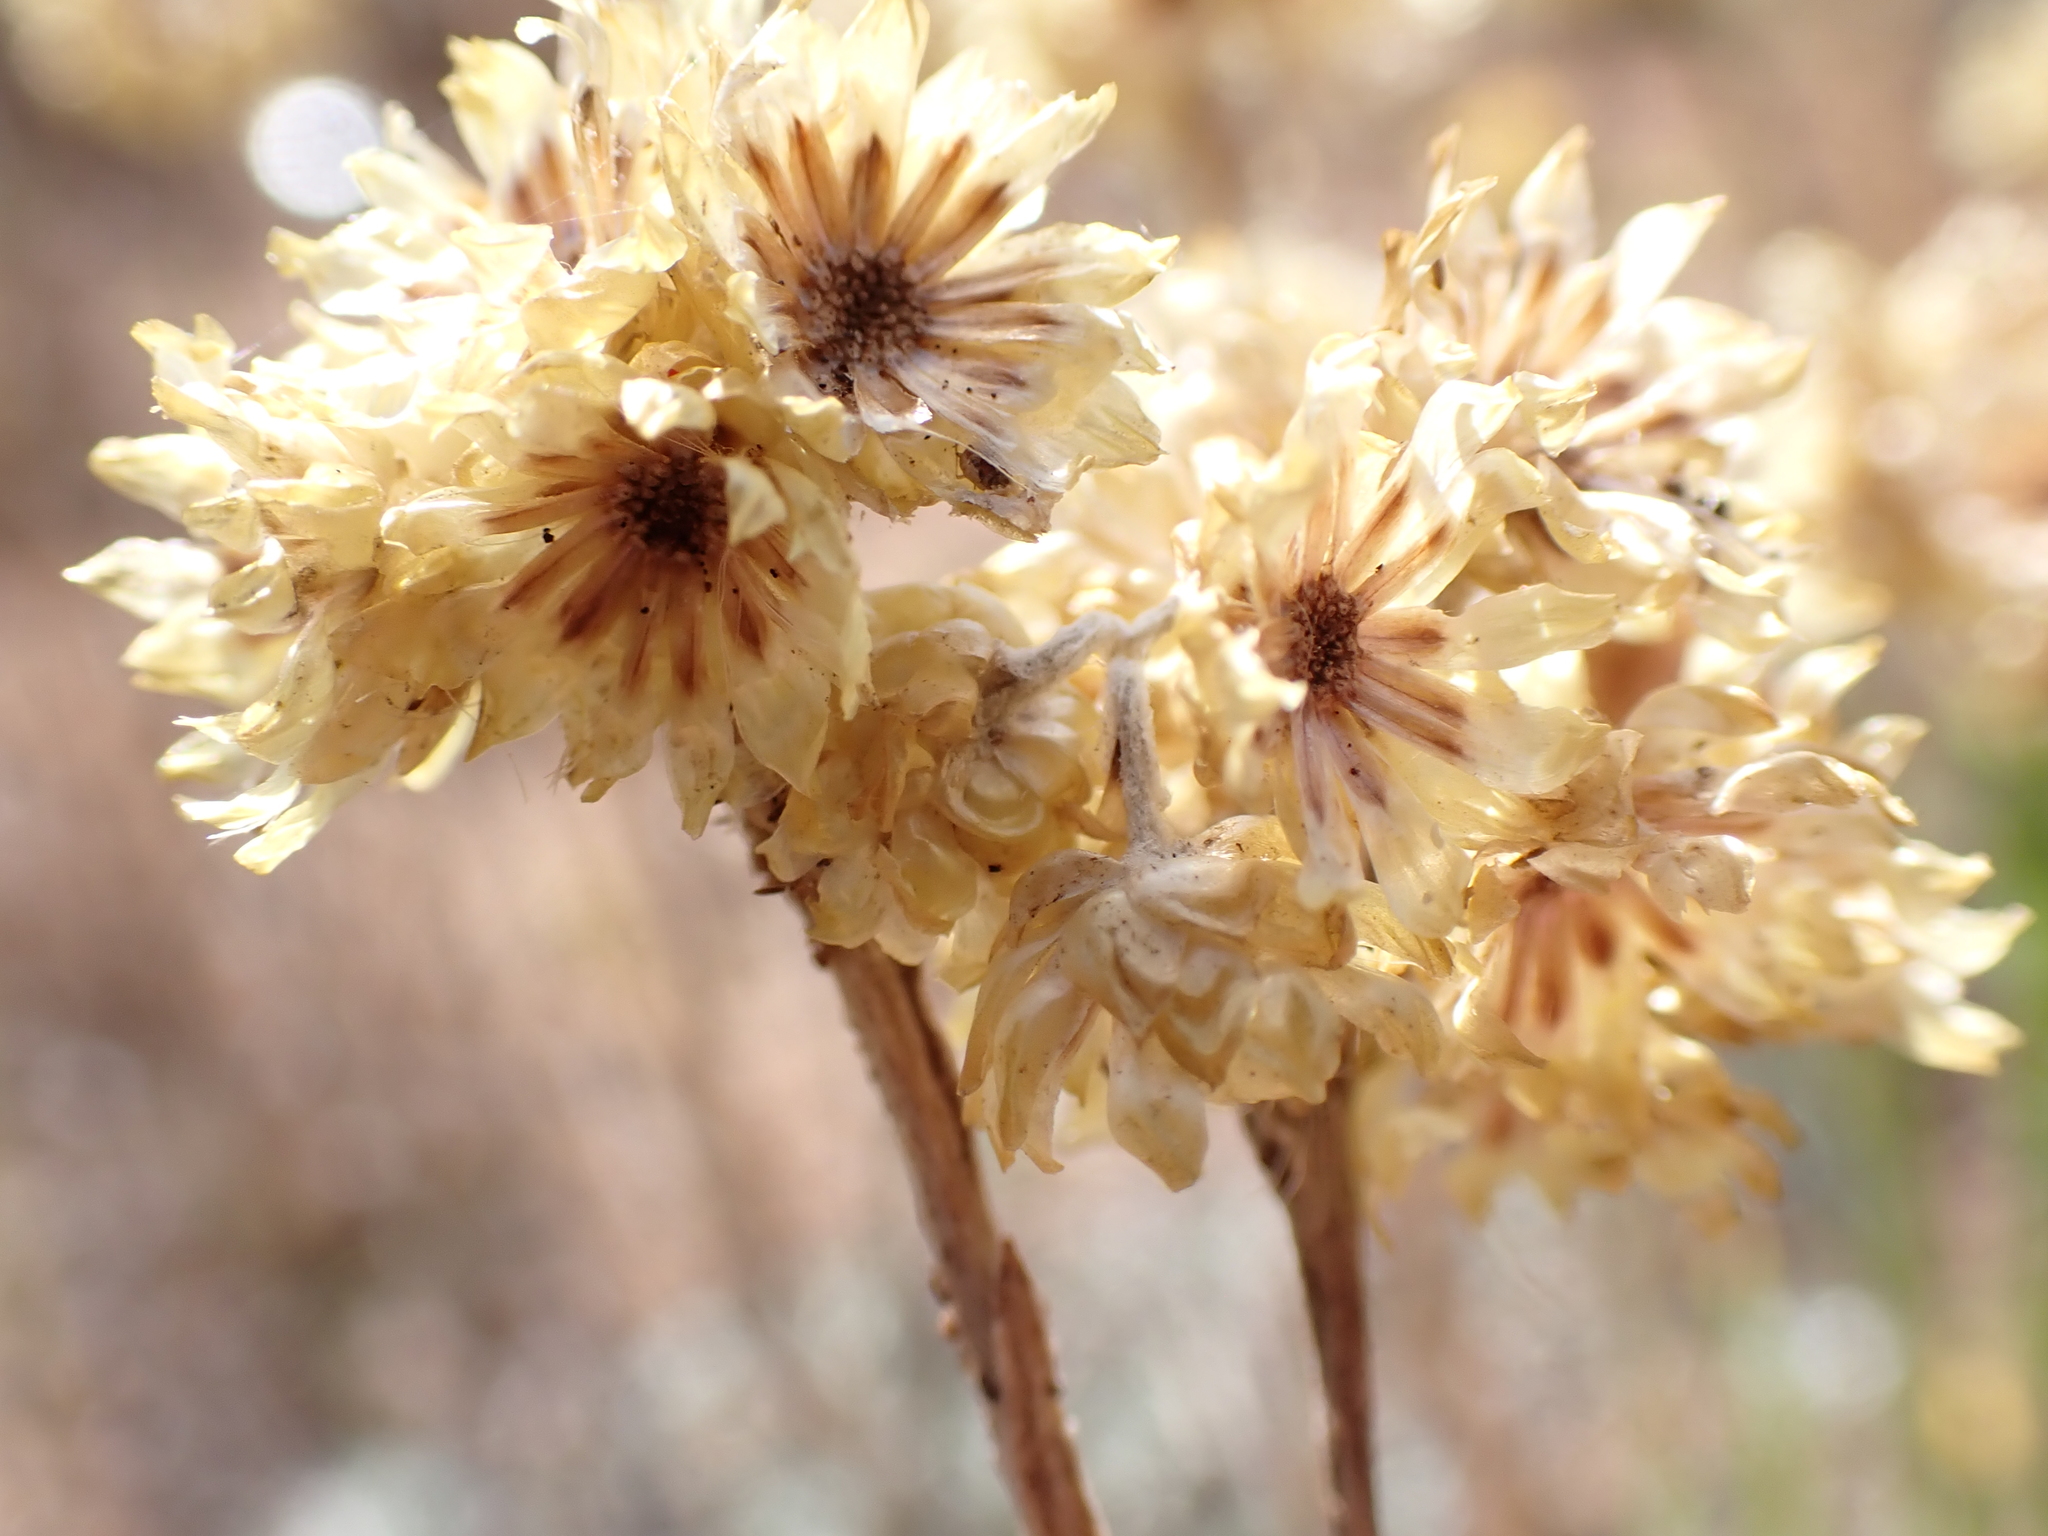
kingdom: Plantae
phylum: Tracheophyta
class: Magnoliopsida
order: Asterales
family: Asteraceae
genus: Helichrysum
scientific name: Helichrysum stoechas
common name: Goldilocks
